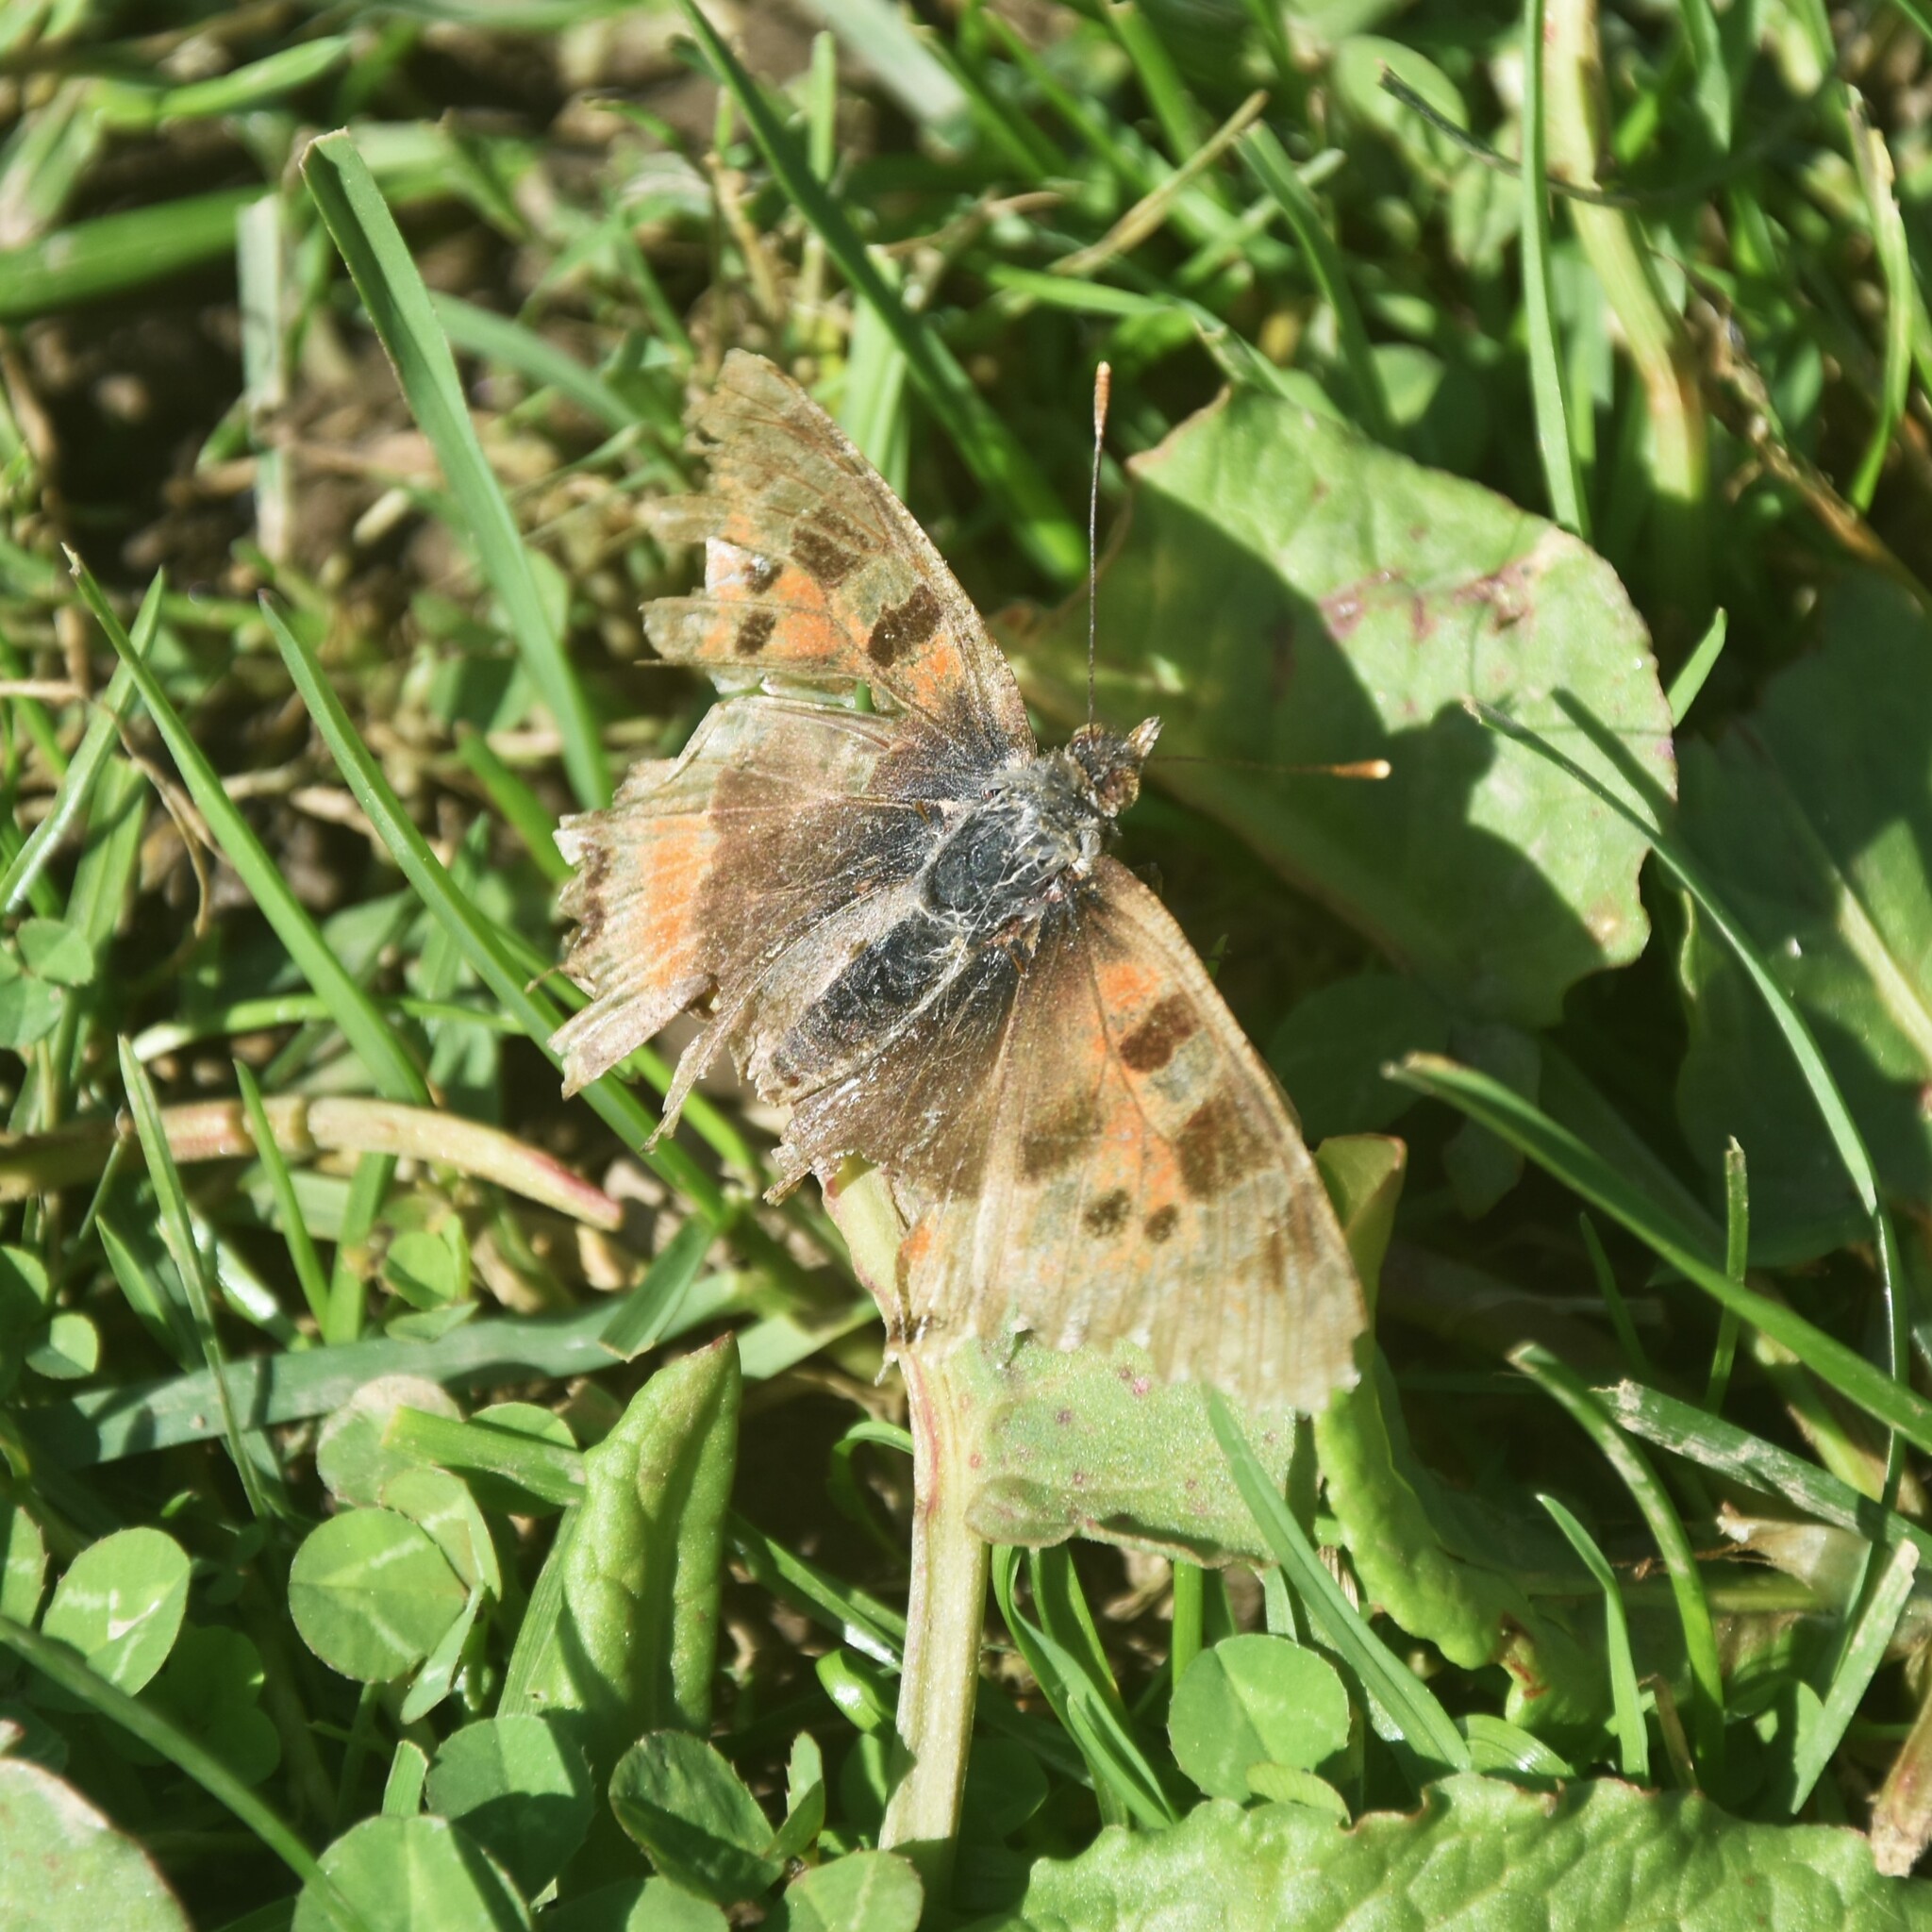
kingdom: Animalia
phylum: Arthropoda
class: Insecta
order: Lepidoptera
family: Nymphalidae
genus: Aglais
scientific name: Aglais caschmirensis
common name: Indian tortoiseshell
